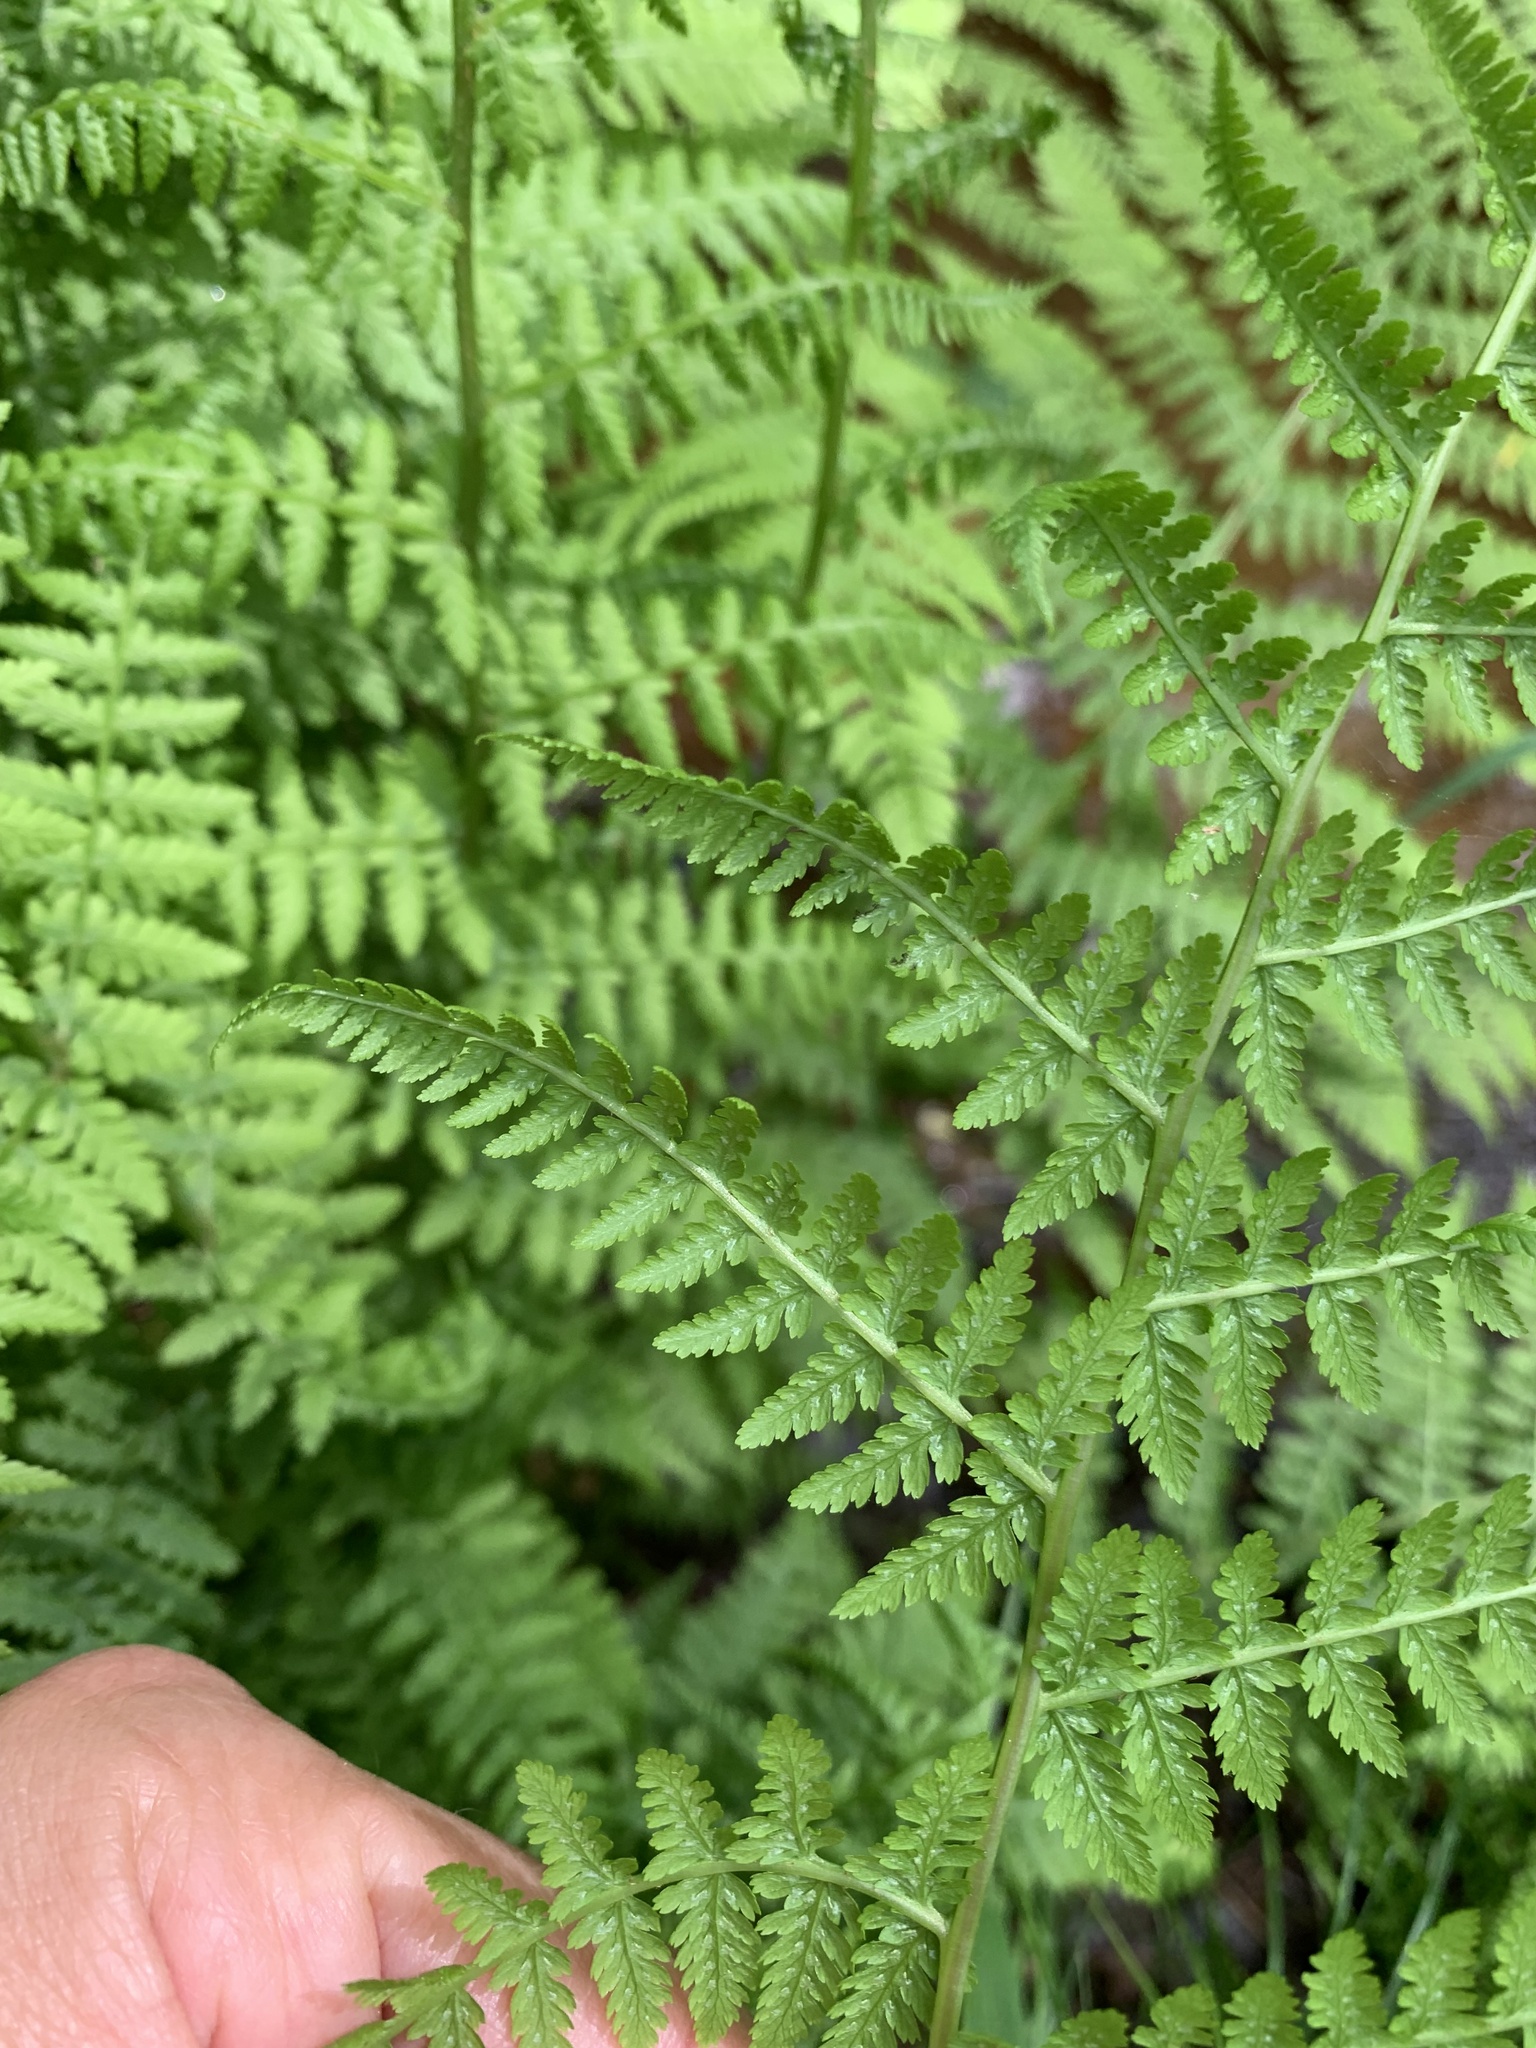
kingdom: Plantae
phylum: Tracheophyta
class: Polypodiopsida
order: Polypodiales
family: Athyriaceae
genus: Athyrium
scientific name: Athyrium filix-femina
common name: Lady fern
